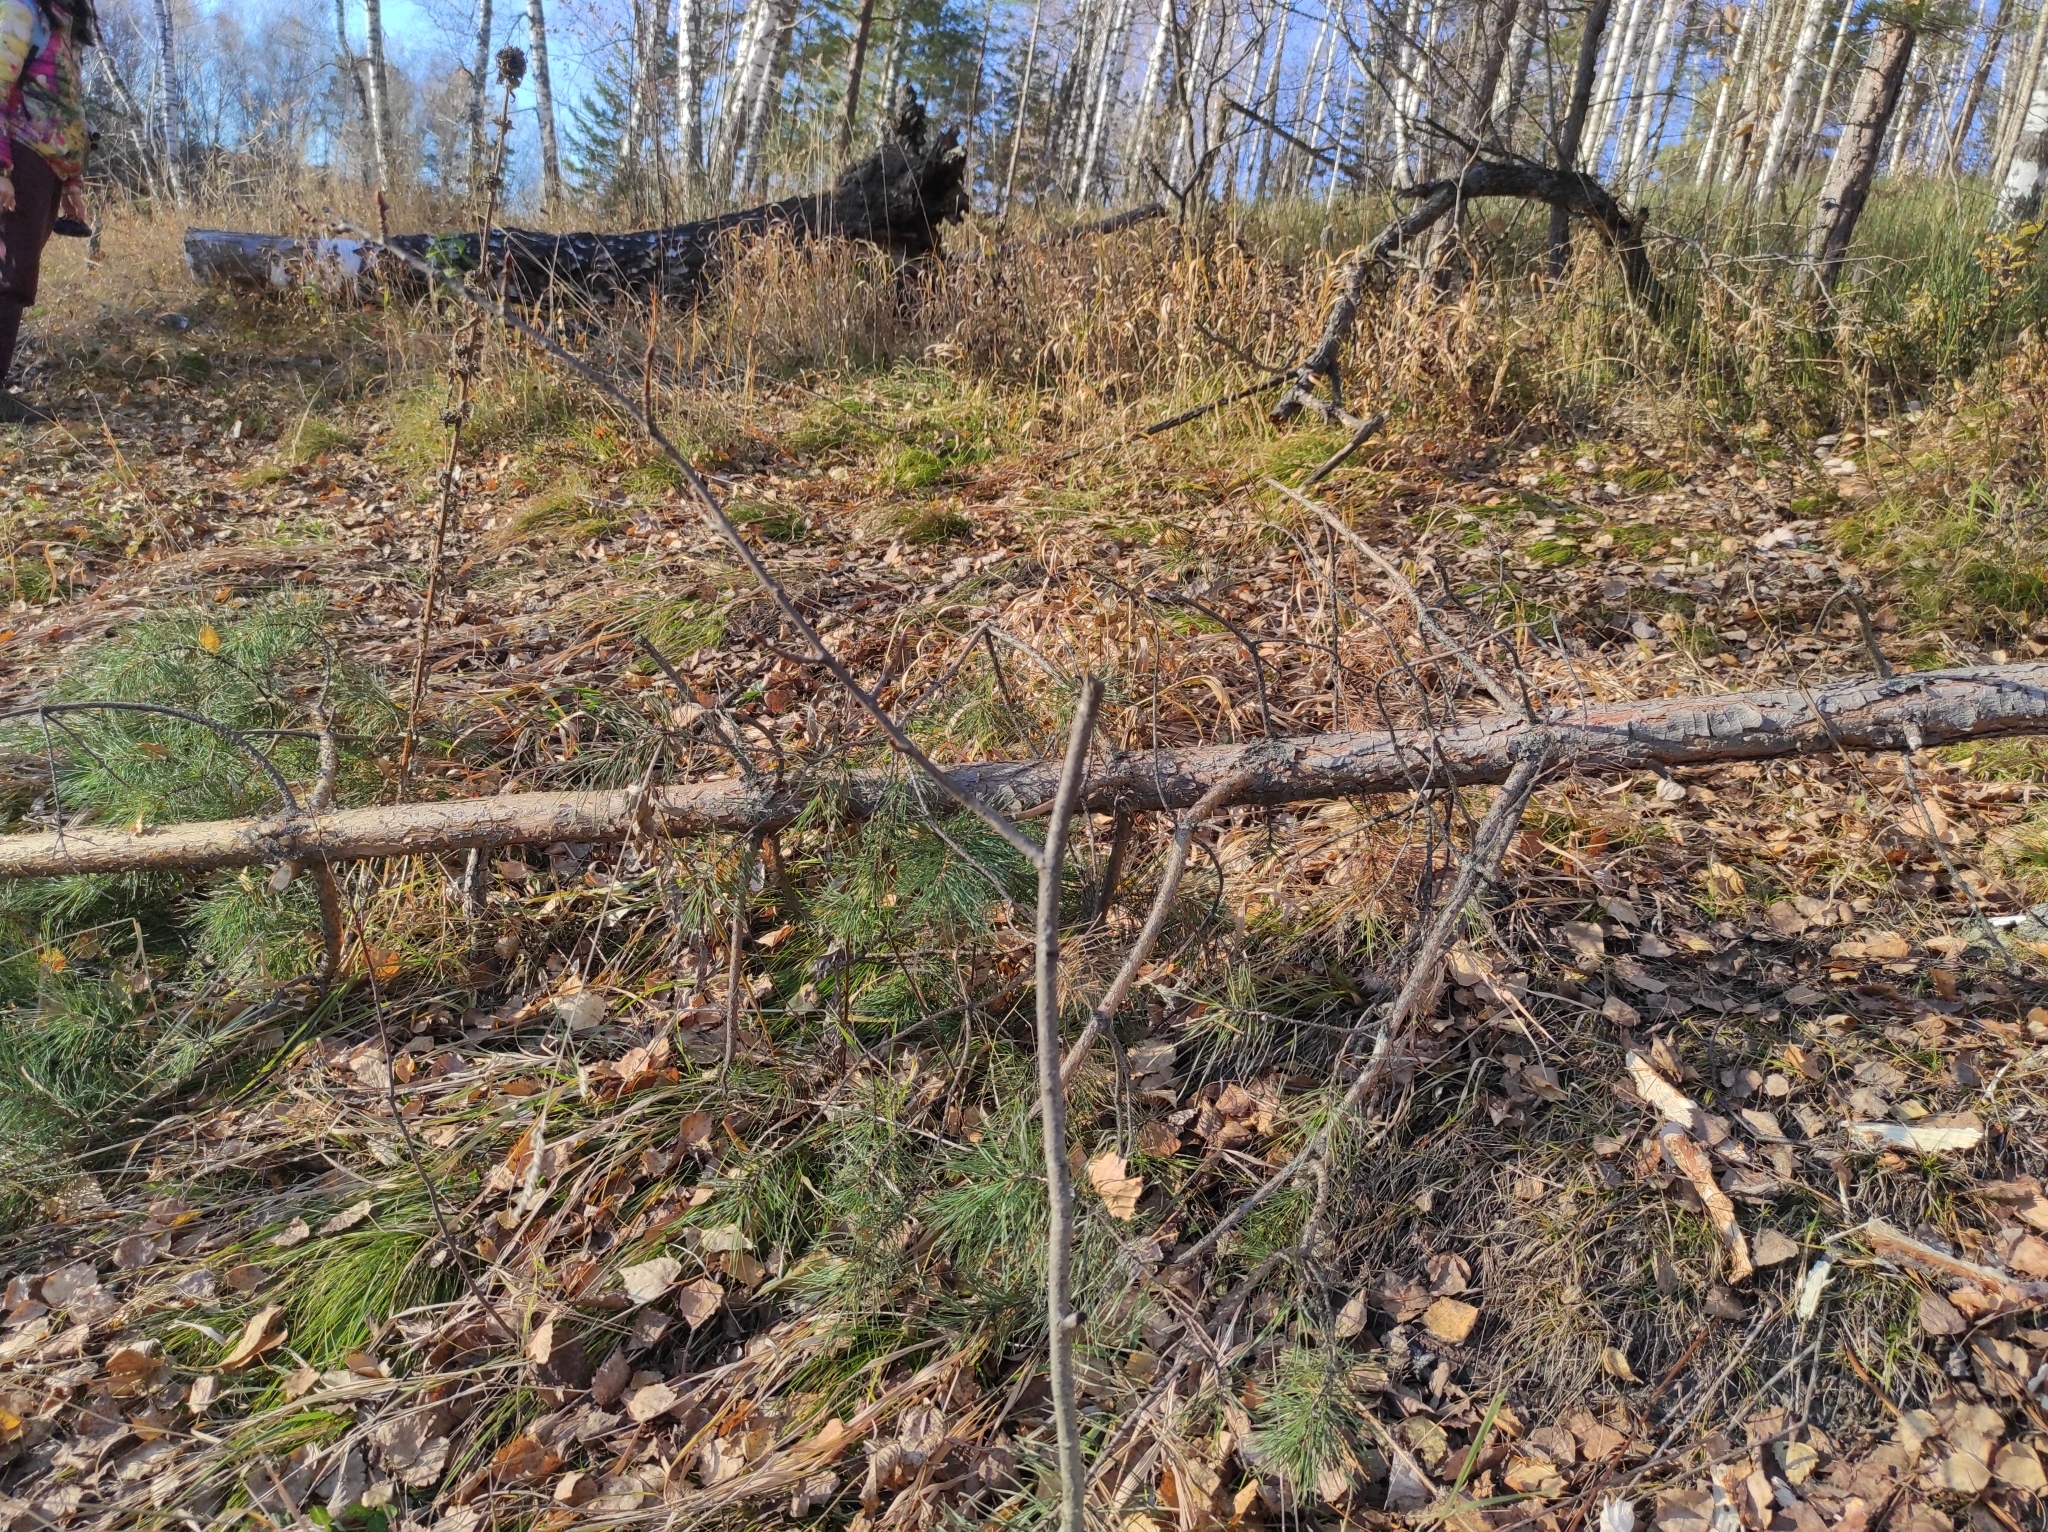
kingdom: Animalia
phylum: Chordata
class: Mammalia
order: Rodentia
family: Castoridae
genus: Castor
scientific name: Castor fiber
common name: Eurasian beaver
